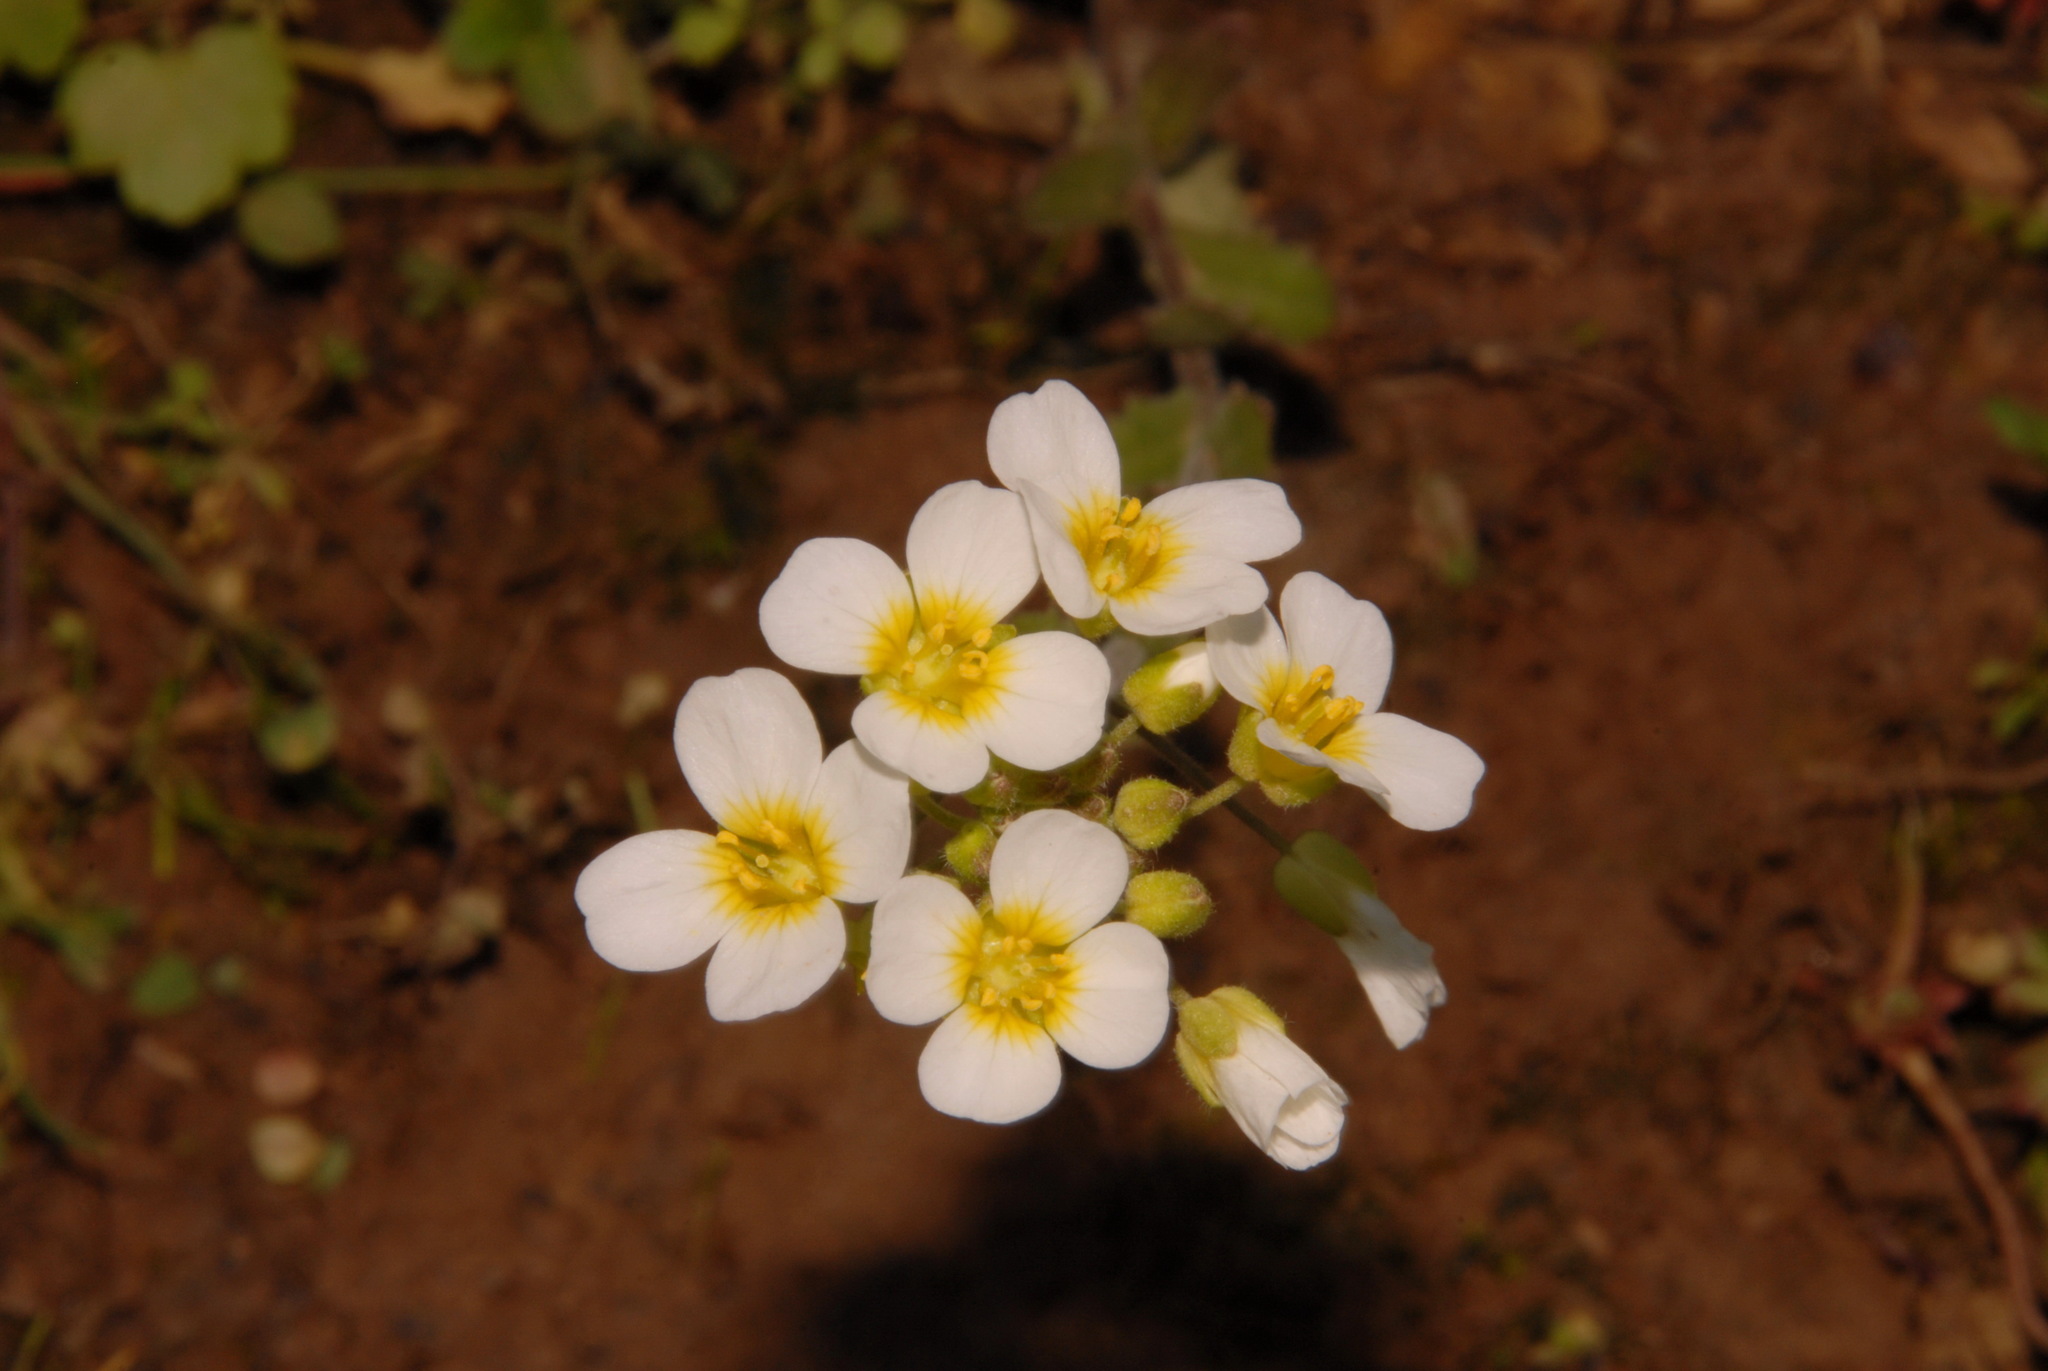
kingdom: Plantae
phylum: Tracheophyta
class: Magnoliopsida
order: Brassicales
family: Brassicaceae
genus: Paysonia
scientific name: Paysonia stonensis
